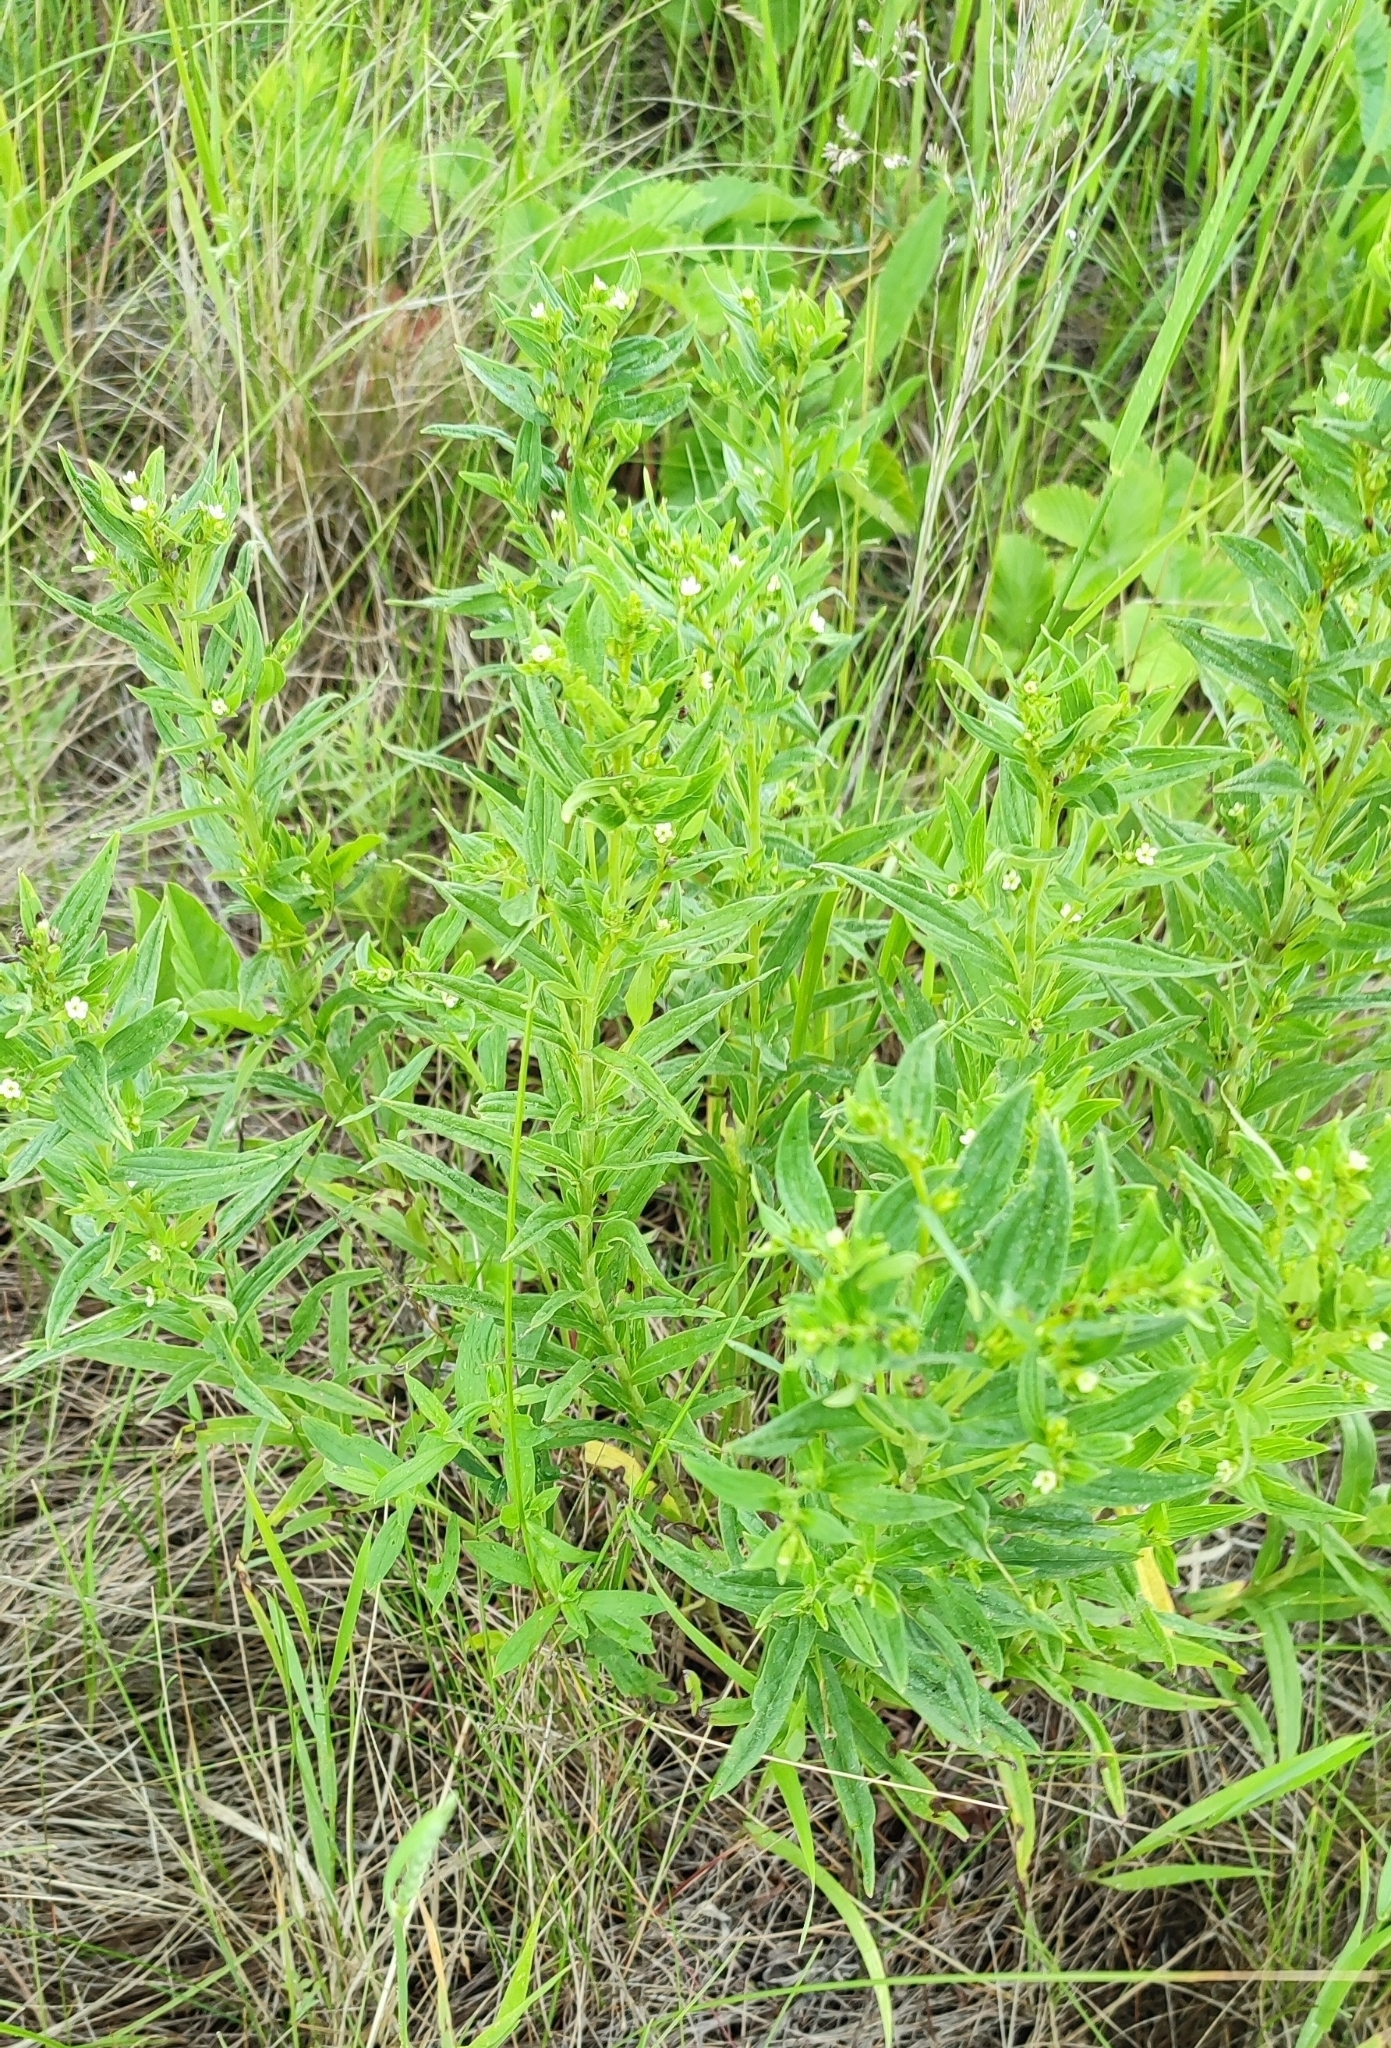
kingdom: Plantae
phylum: Tracheophyta
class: Magnoliopsida
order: Boraginales
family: Boraginaceae
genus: Lithospermum
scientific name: Lithospermum officinale
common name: Common gromwell
